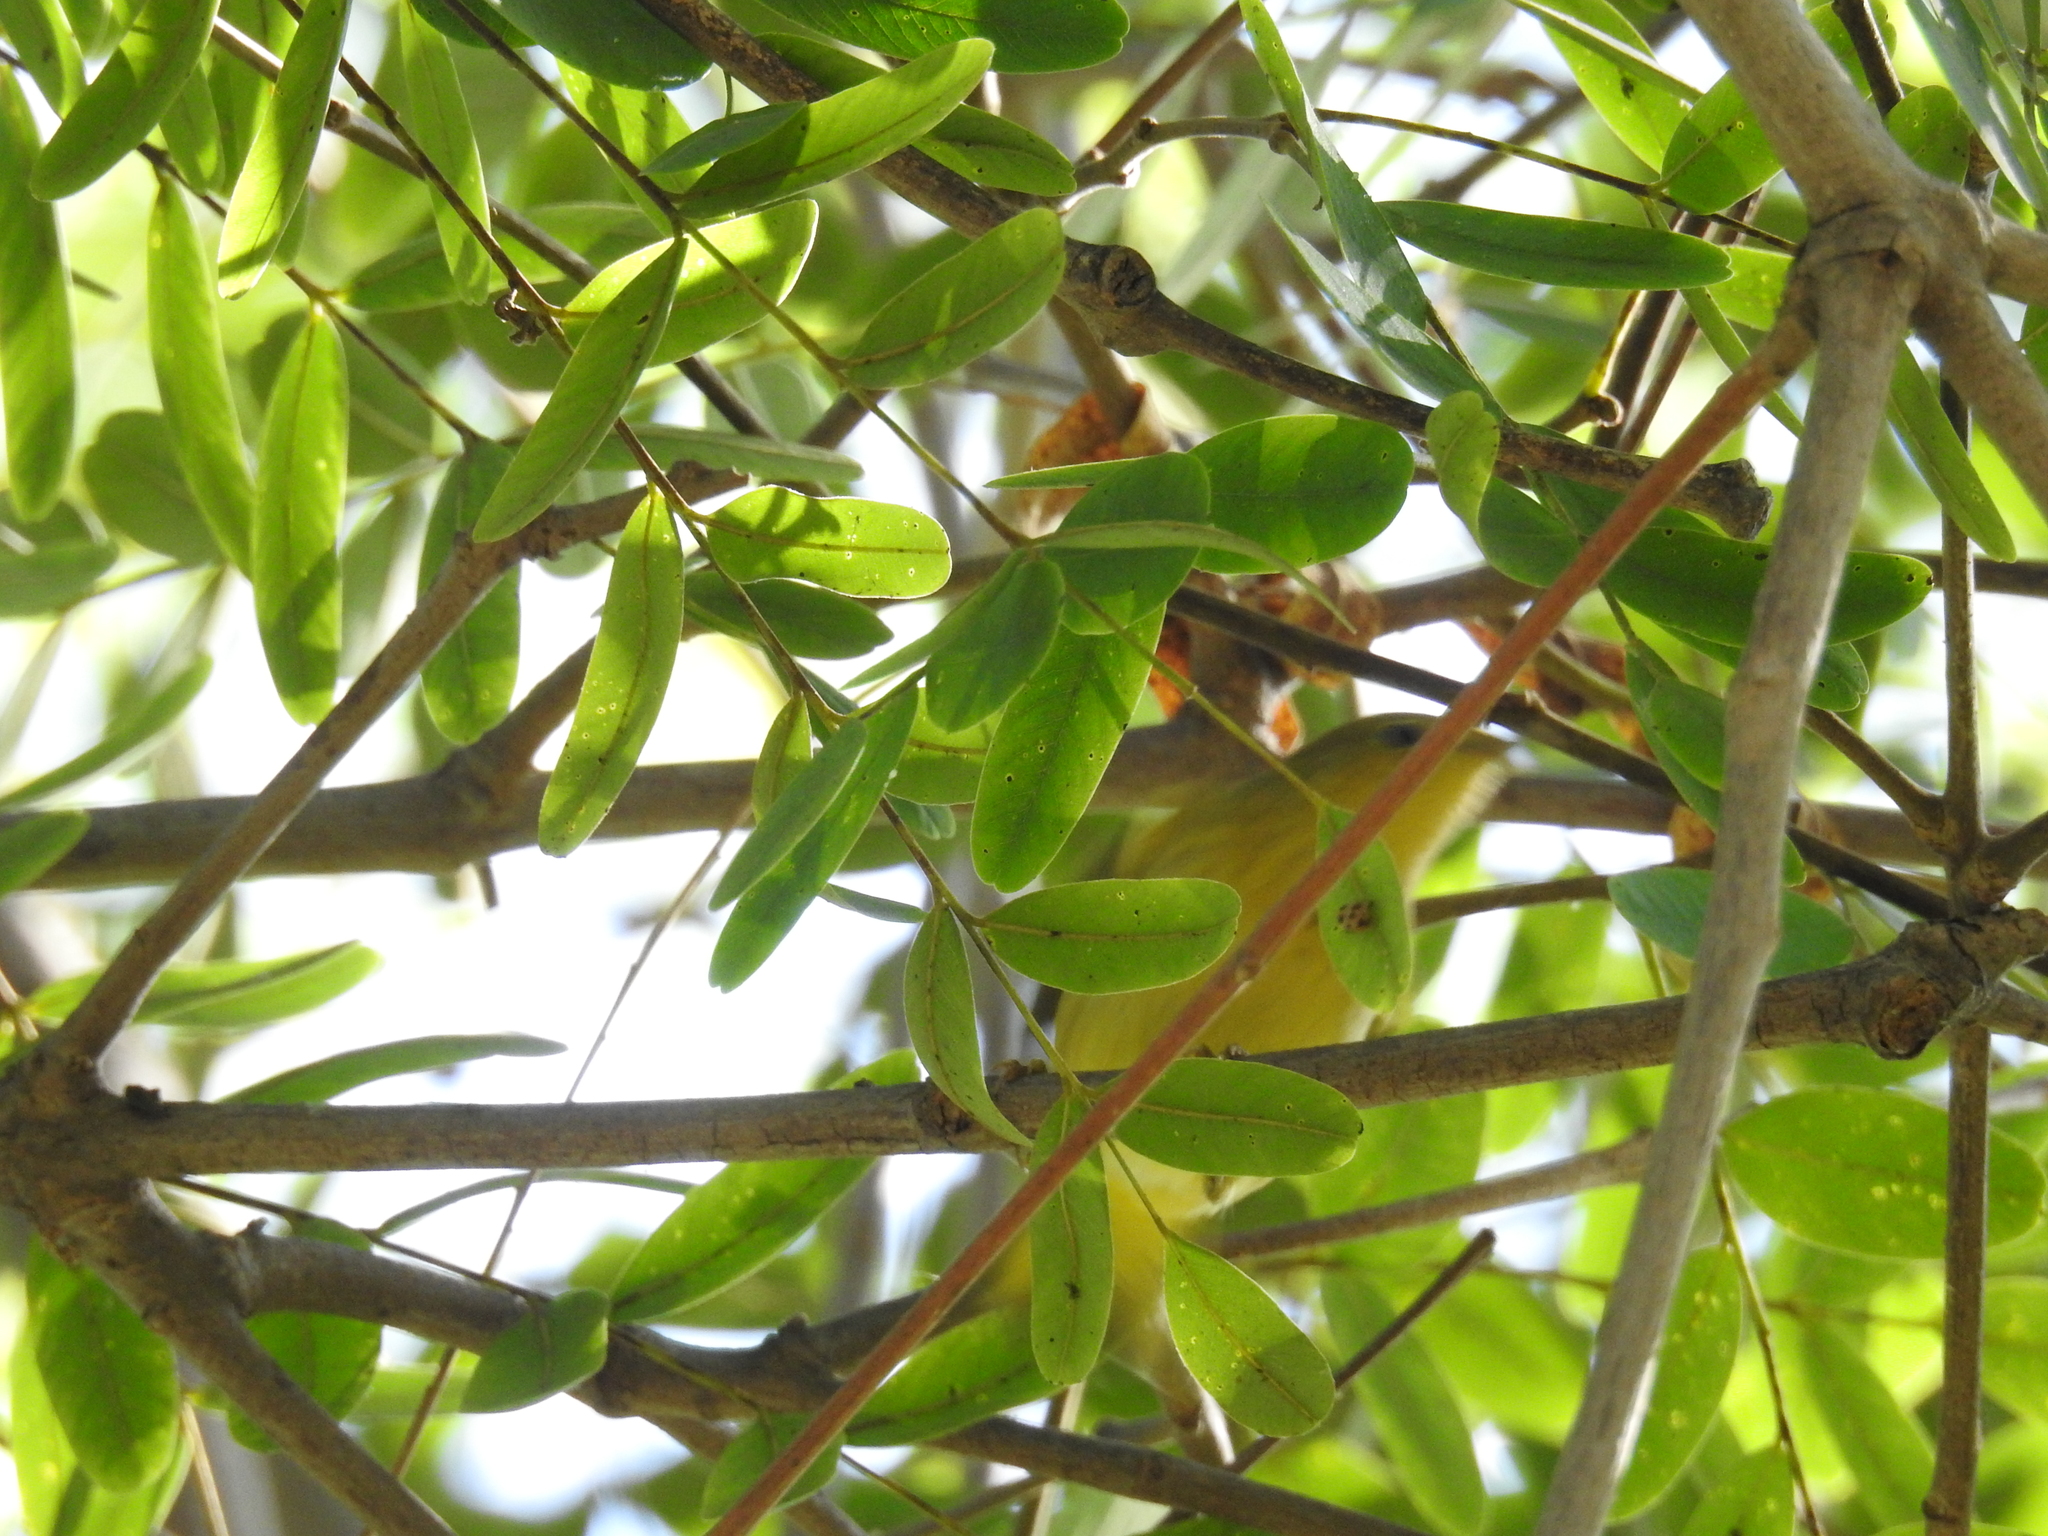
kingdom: Animalia
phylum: Chordata
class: Aves
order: Passeriformes
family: Parulidae
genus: Setophaga
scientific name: Setophaga petechia
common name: Yellow warbler
